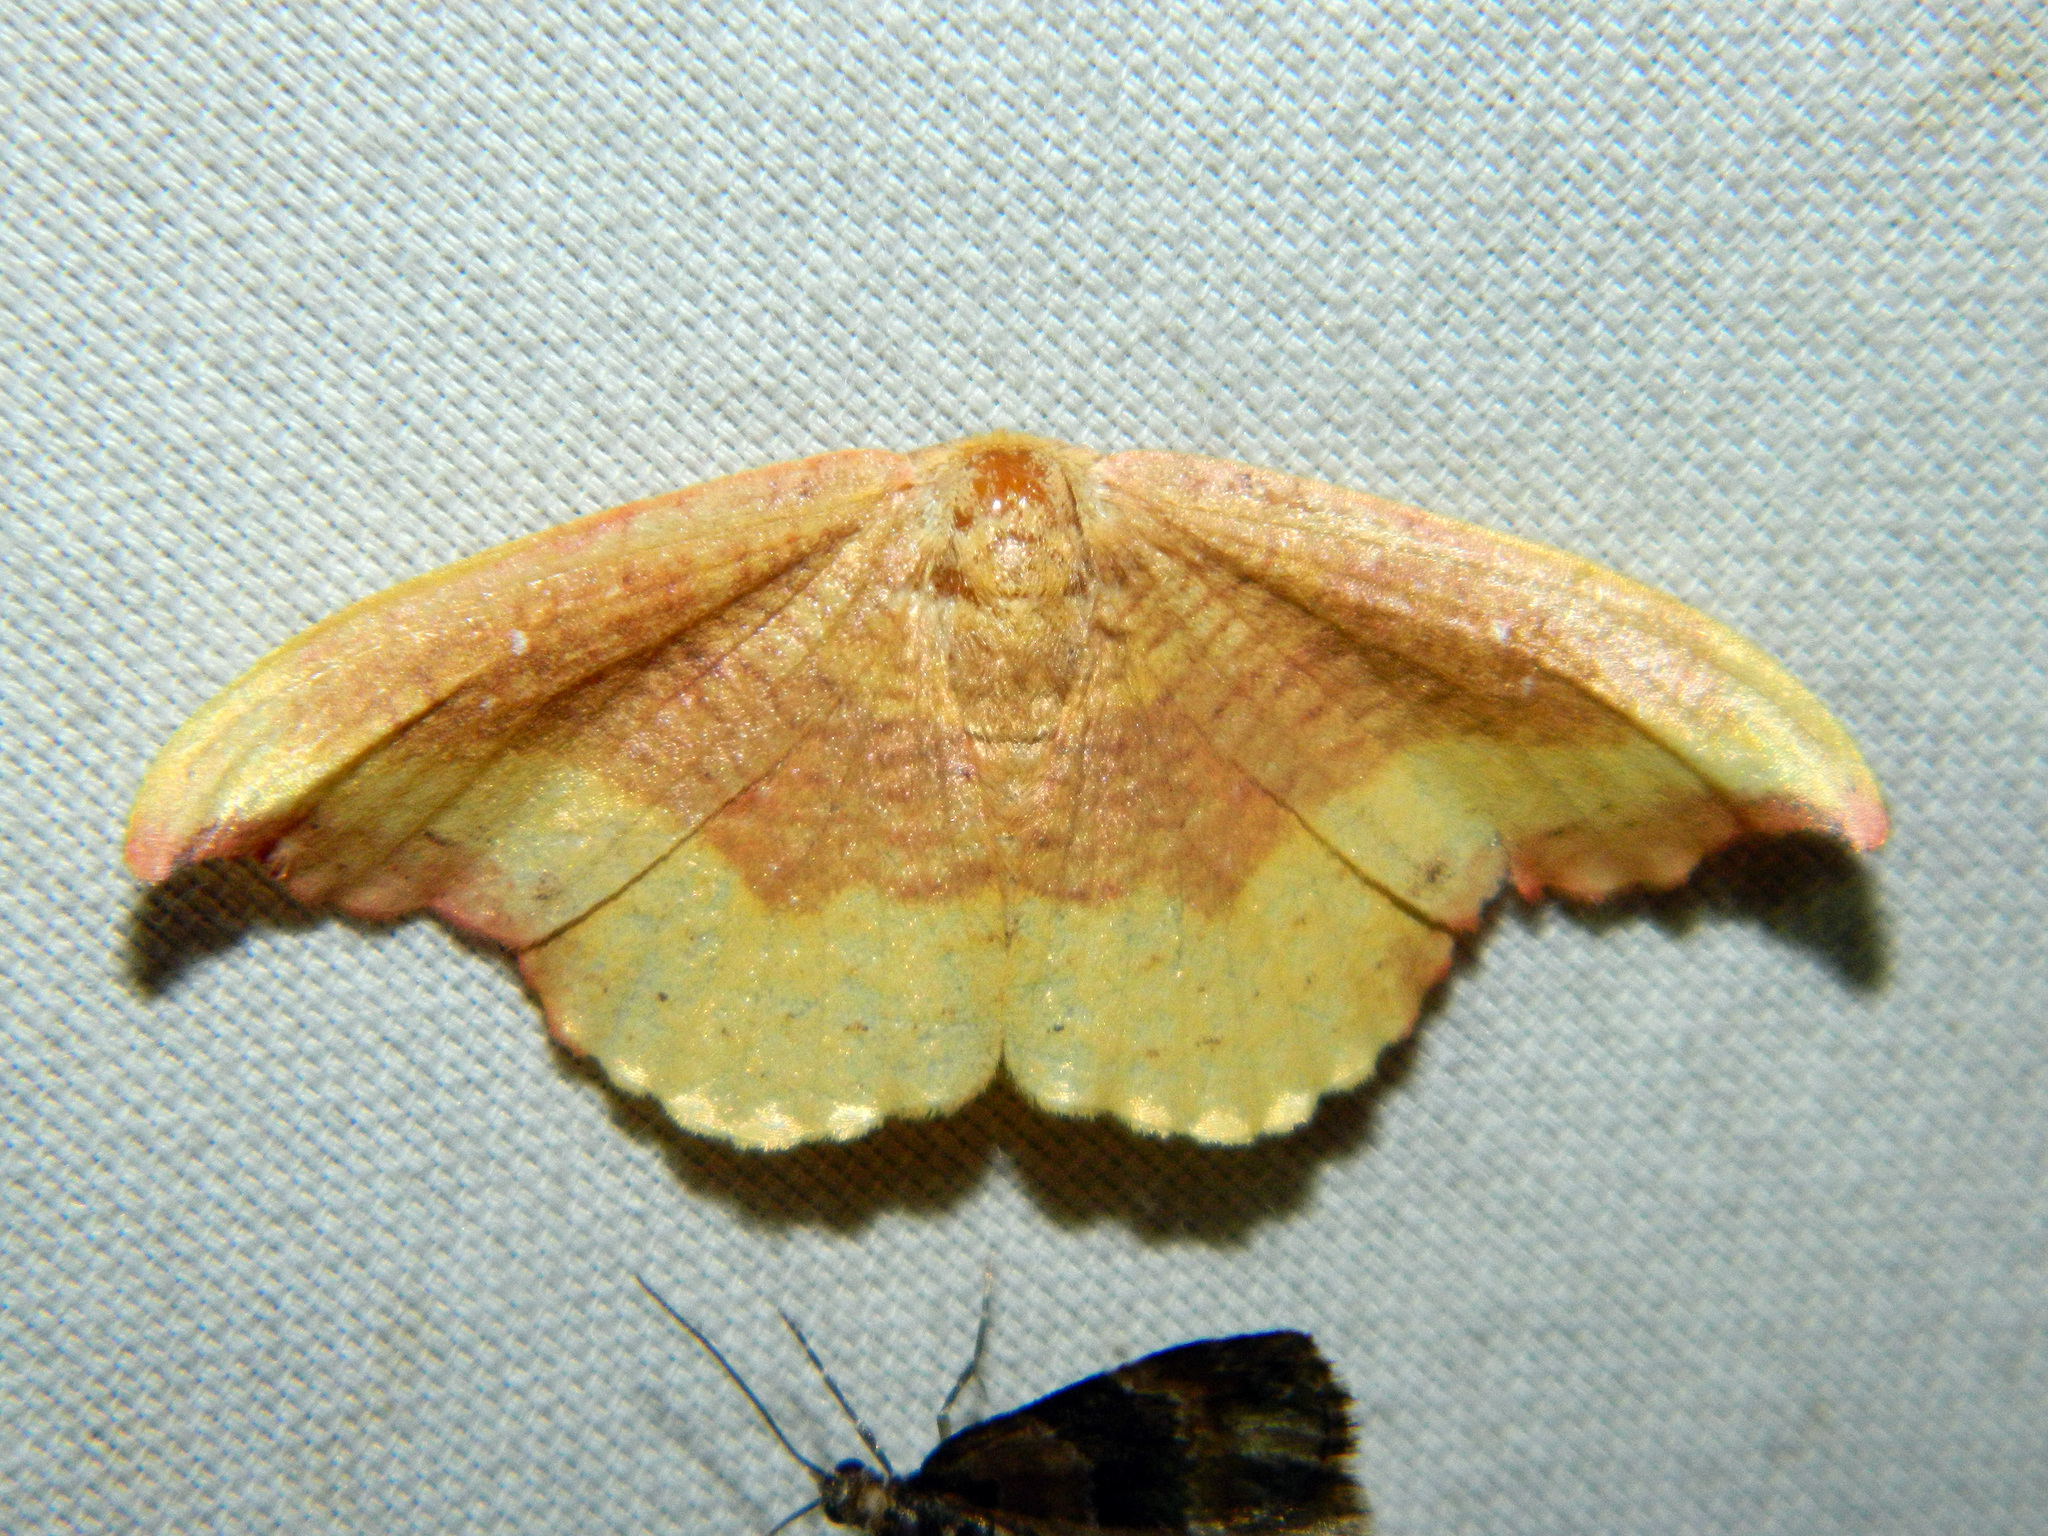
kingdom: Animalia
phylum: Arthropoda
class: Insecta
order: Lepidoptera
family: Drepanidae
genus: Oreta
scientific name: Oreta rosea
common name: Rose hooktip
